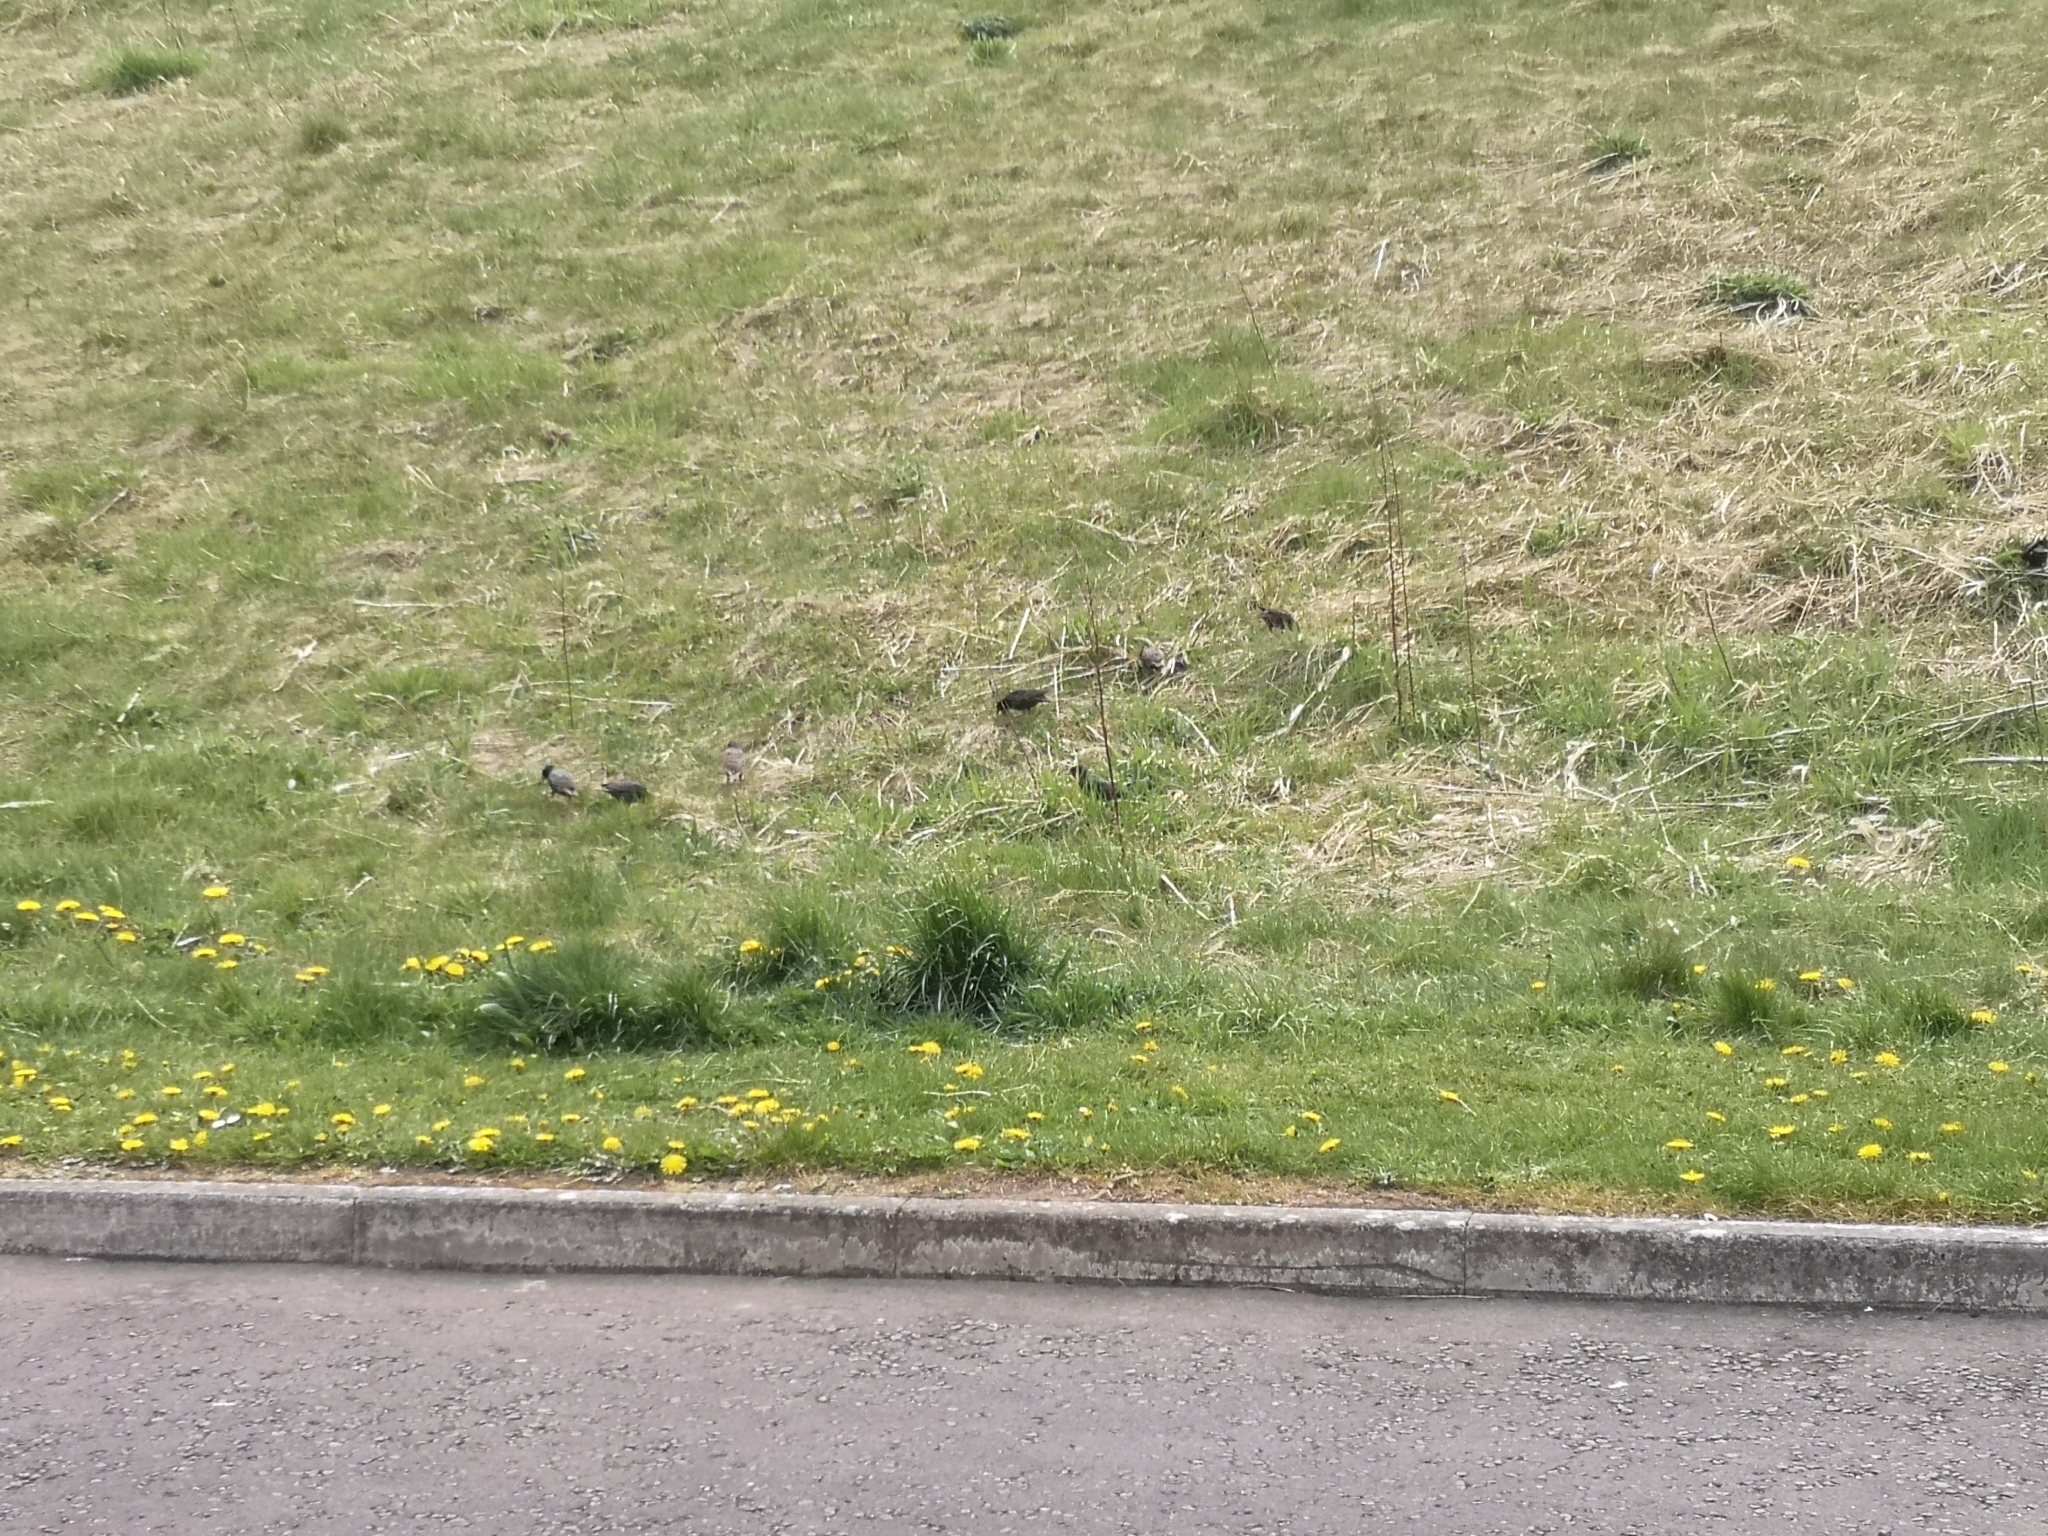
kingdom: Animalia
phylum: Chordata
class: Aves
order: Passeriformes
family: Sturnidae
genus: Sturnus
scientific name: Sturnus vulgaris
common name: Common starling
